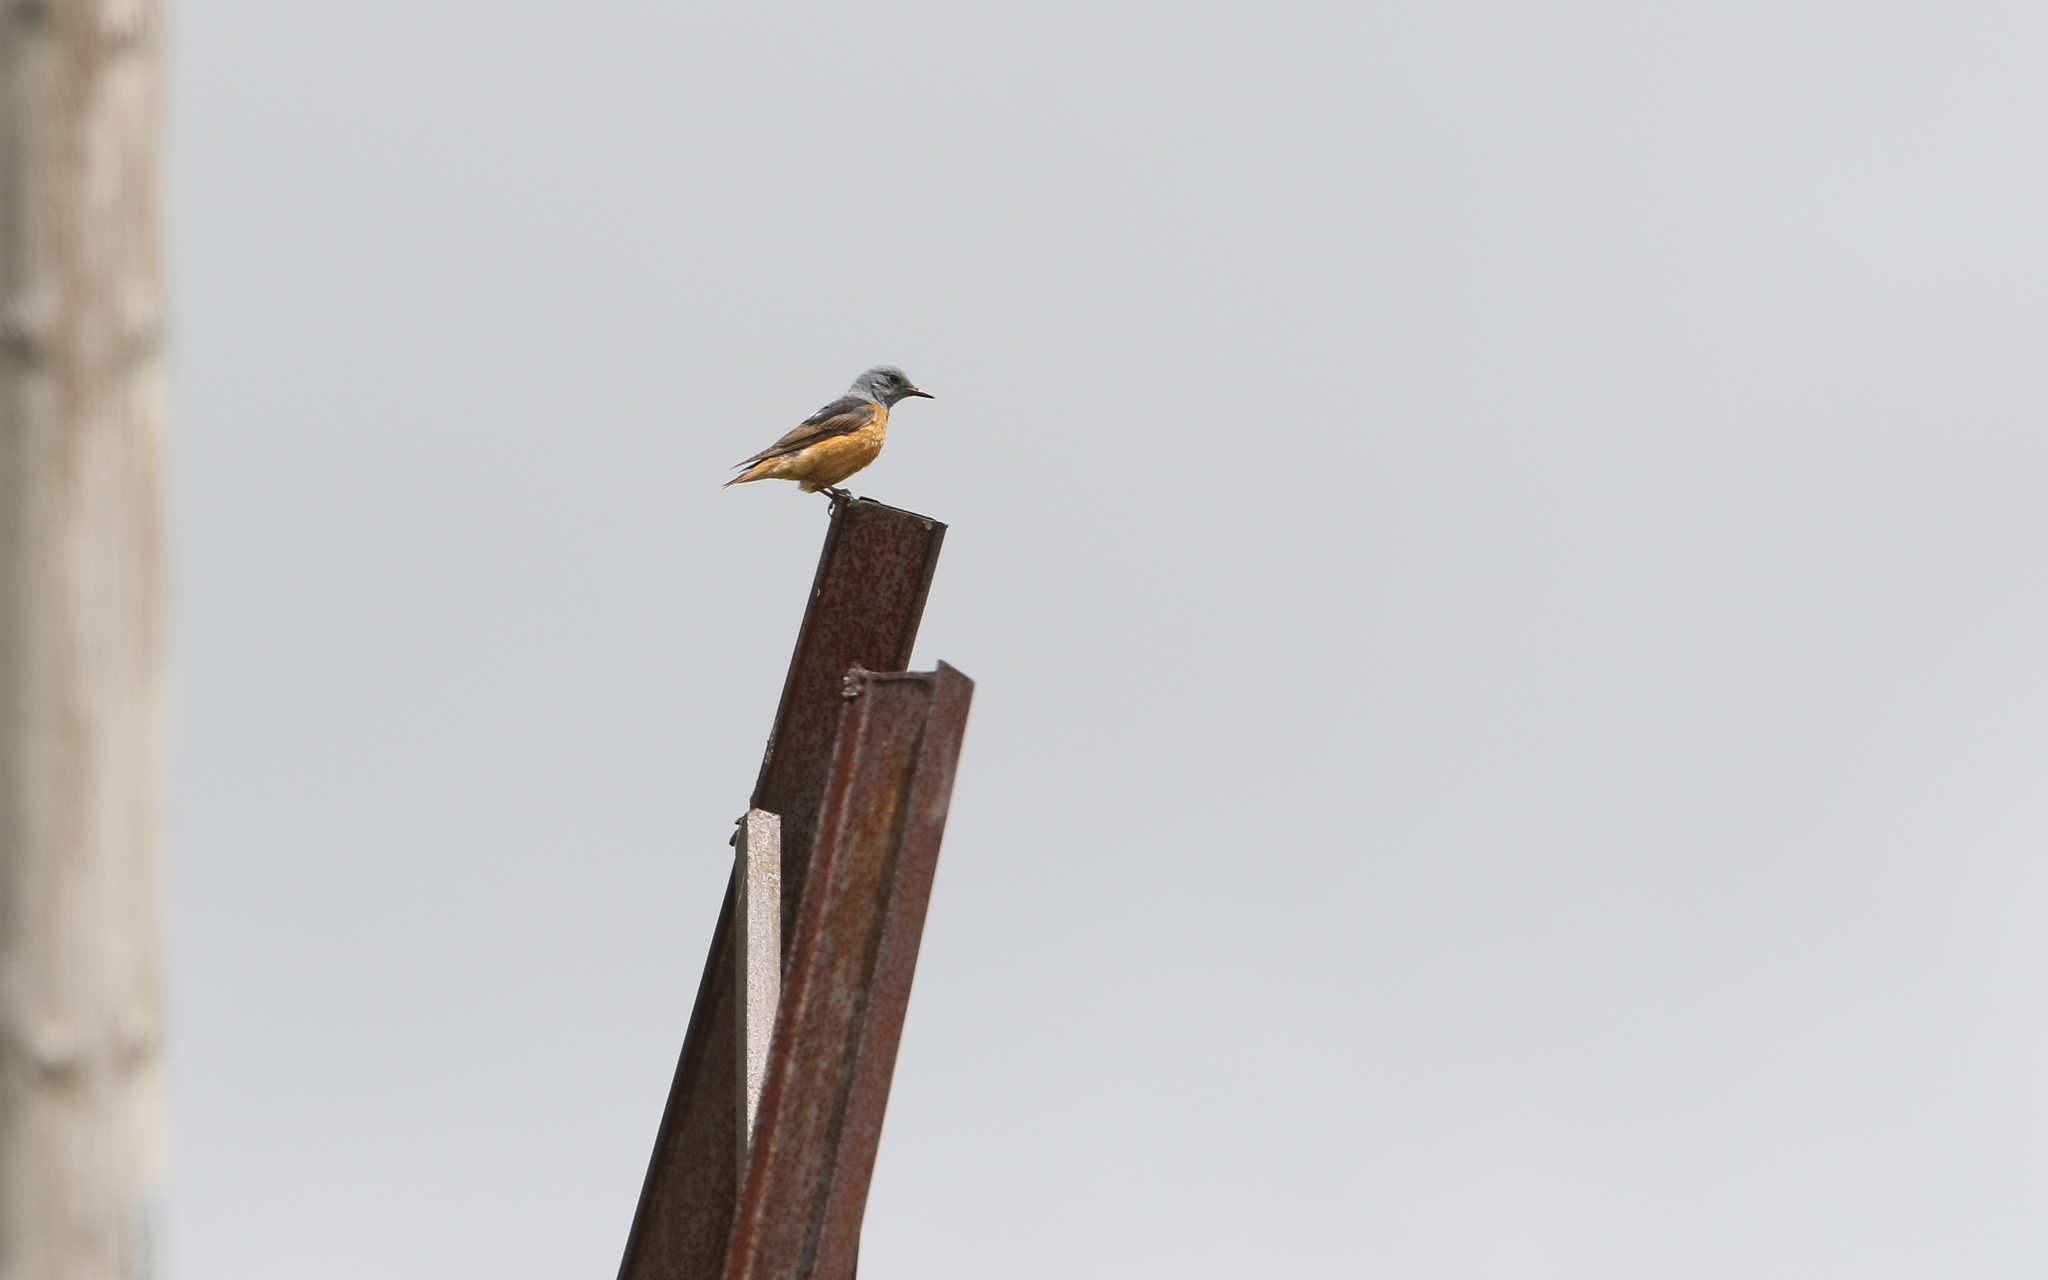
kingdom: Animalia
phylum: Chordata
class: Aves
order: Passeriformes
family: Muscicapidae
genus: Monticola
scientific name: Monticola saxatilis
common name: Rufous-tailed rock thrush
